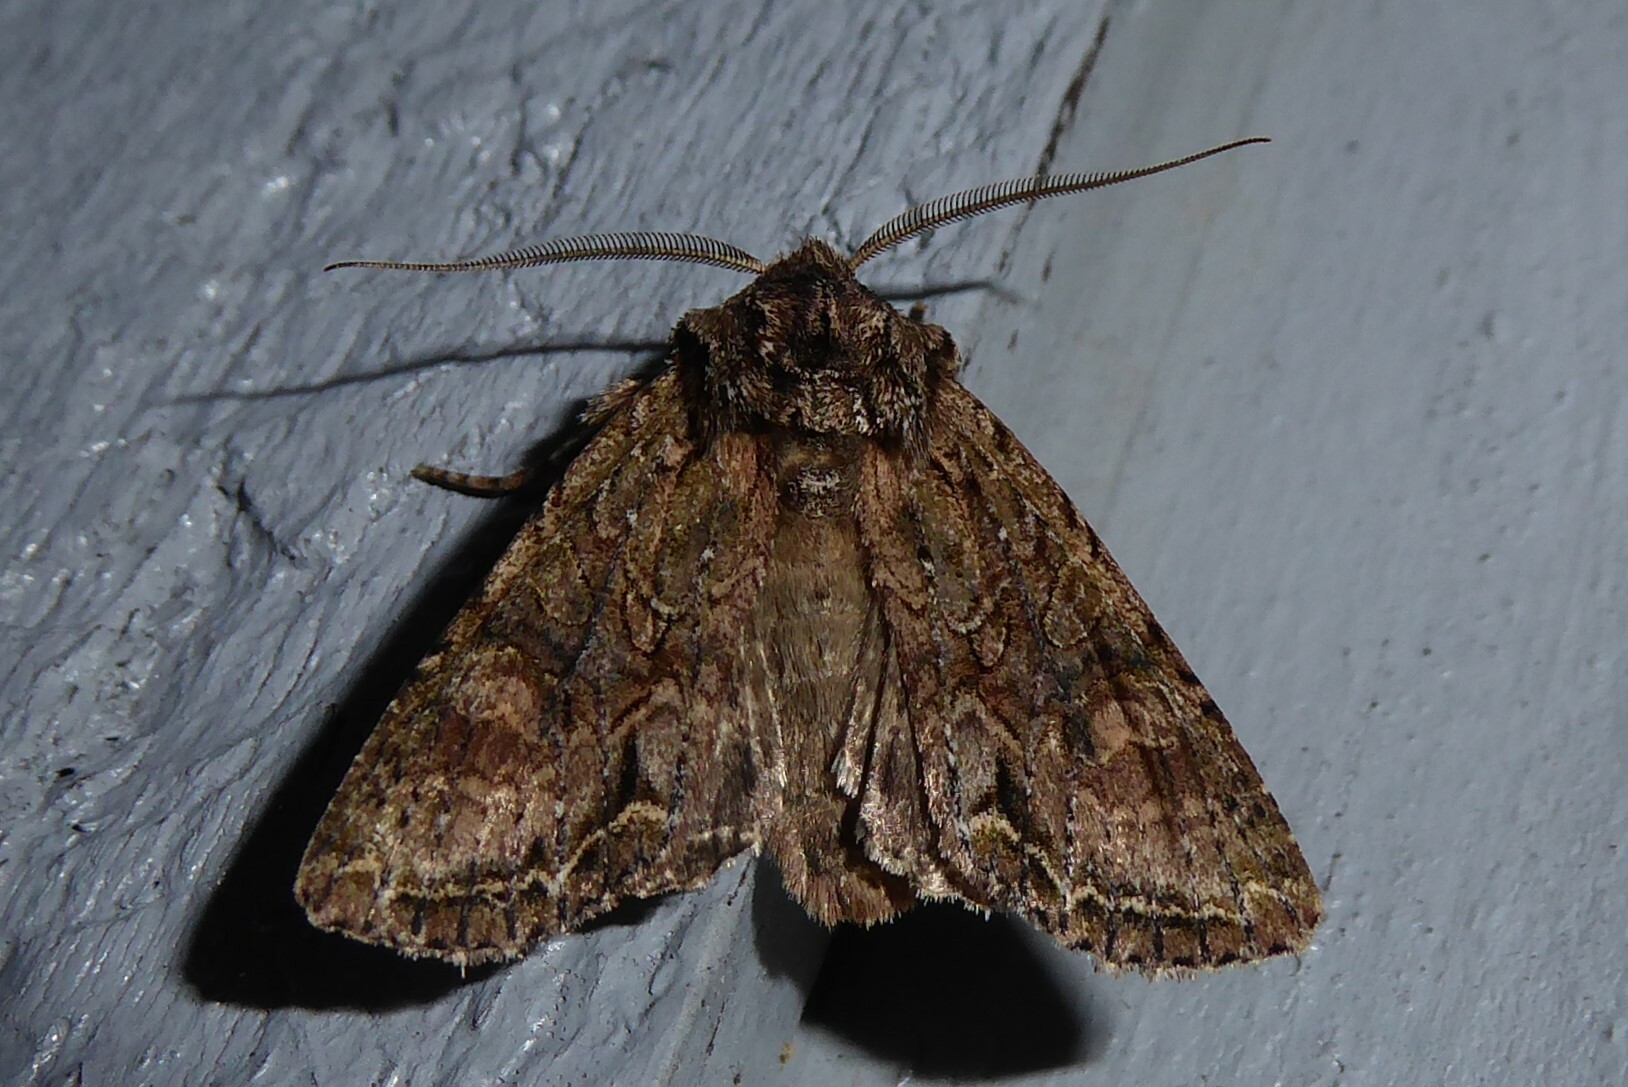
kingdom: Animalia
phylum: Arthropoda
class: Insecta
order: Lepidoptera
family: Noctuidae
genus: Ichneutica
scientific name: Ichneutica mutans
